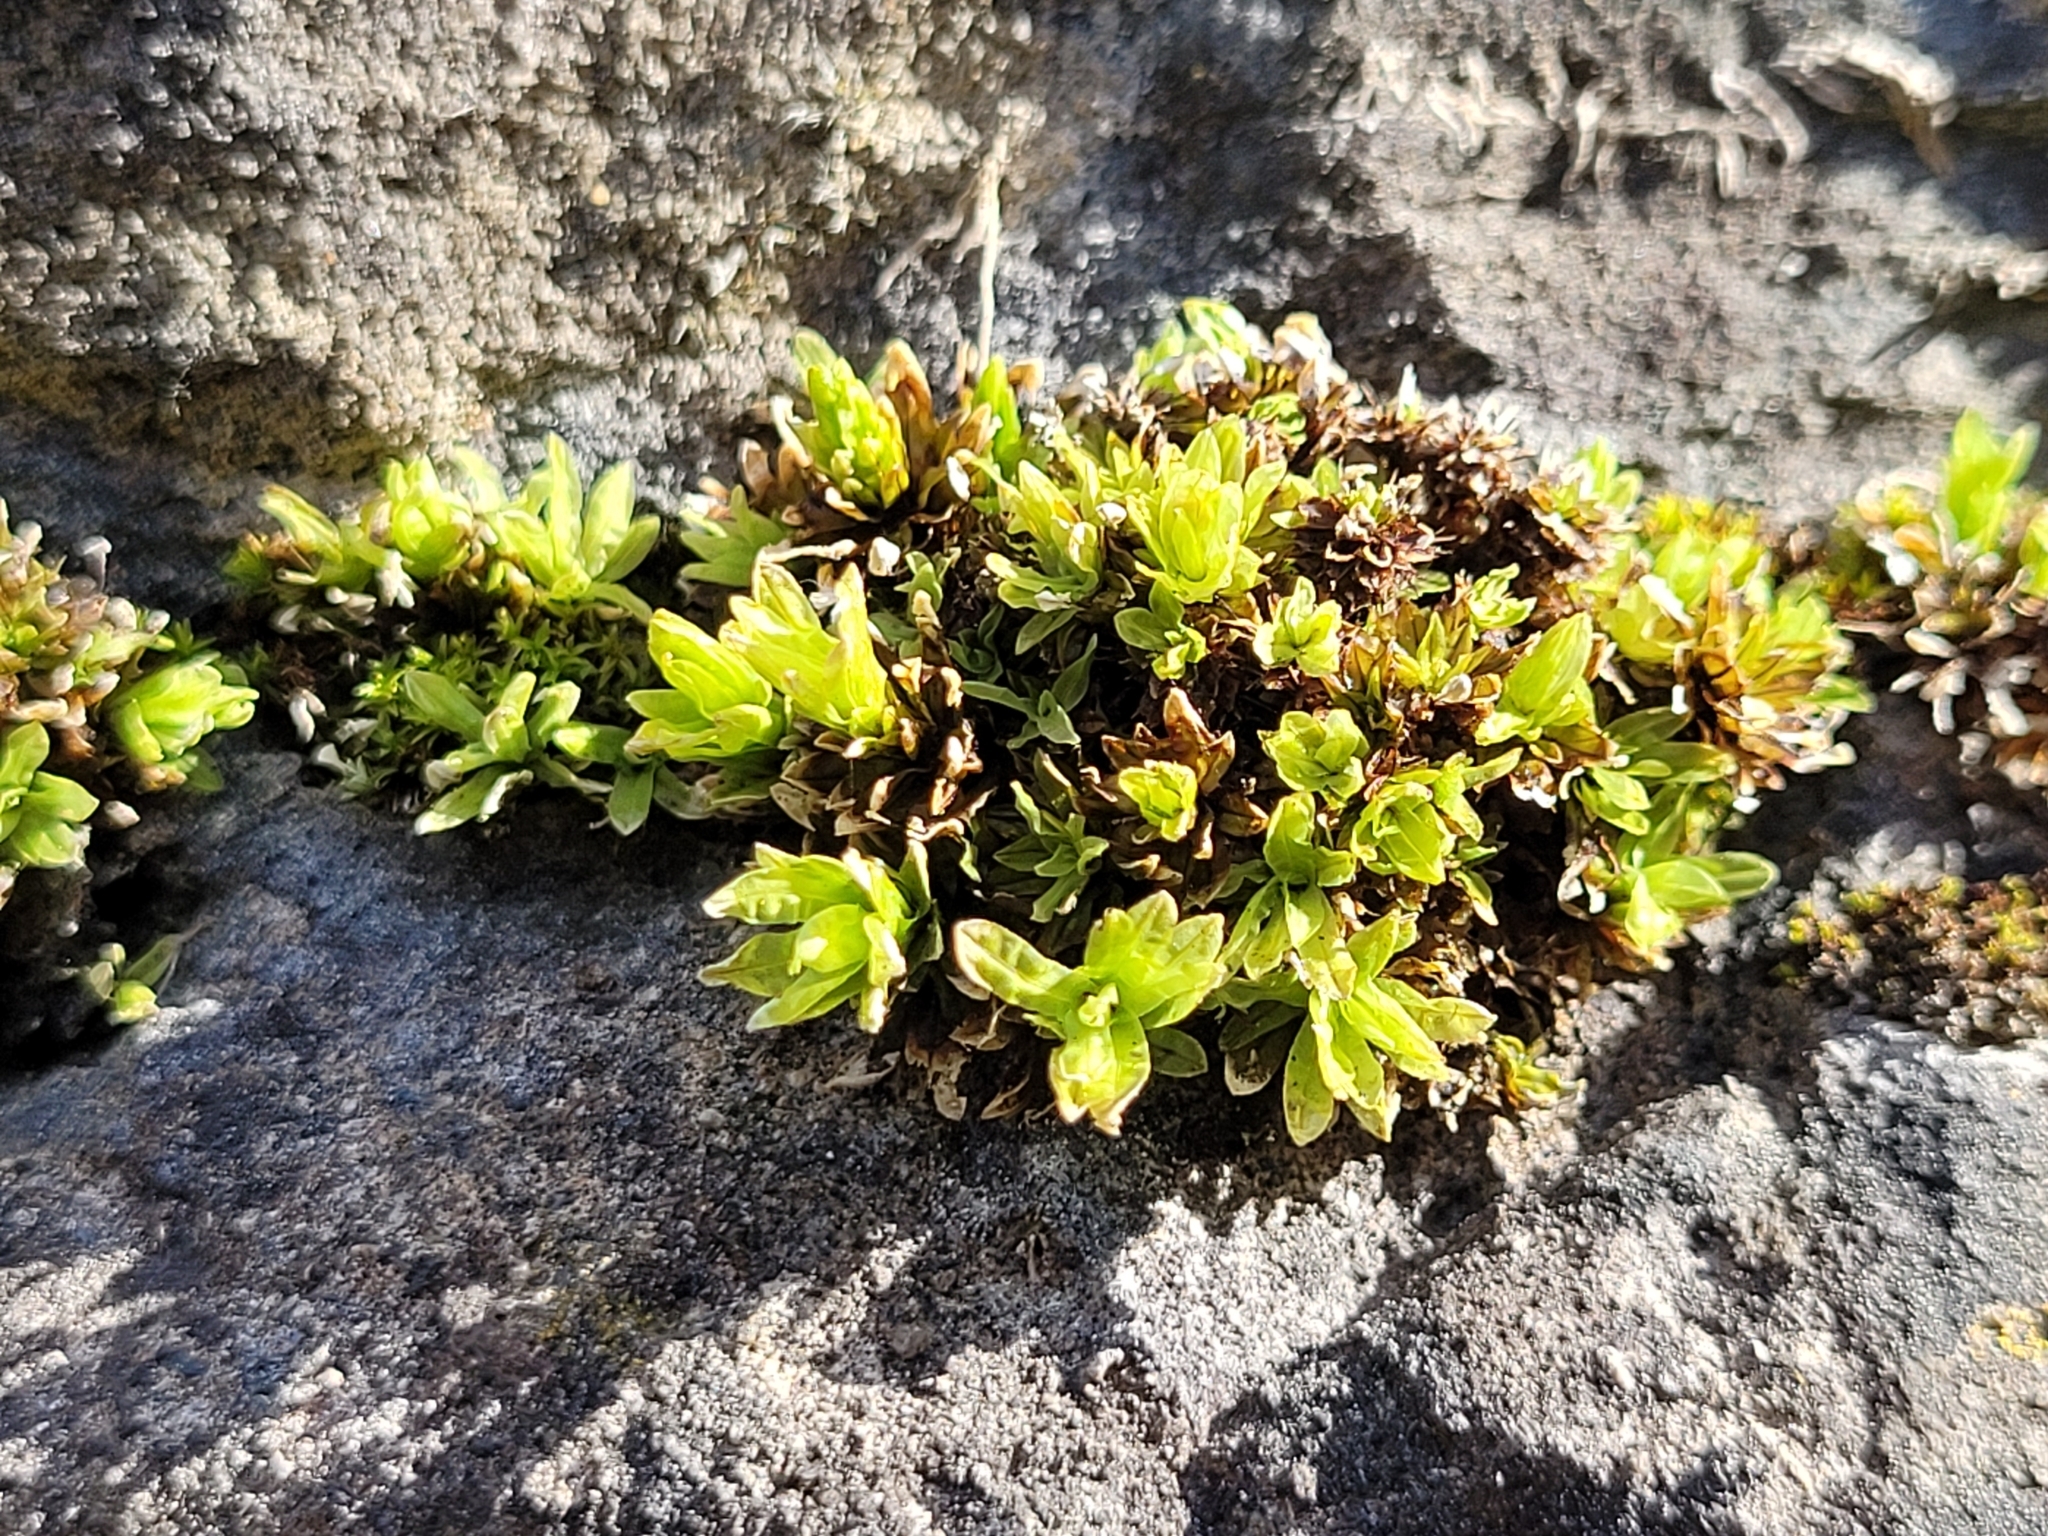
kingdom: Plantae
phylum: Bryophyta
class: Bryopsida
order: Encalyptales
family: Encalyptaceae
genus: Encalypta
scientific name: Encalypta streptocarpa
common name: Spiral extinguisher-moss
